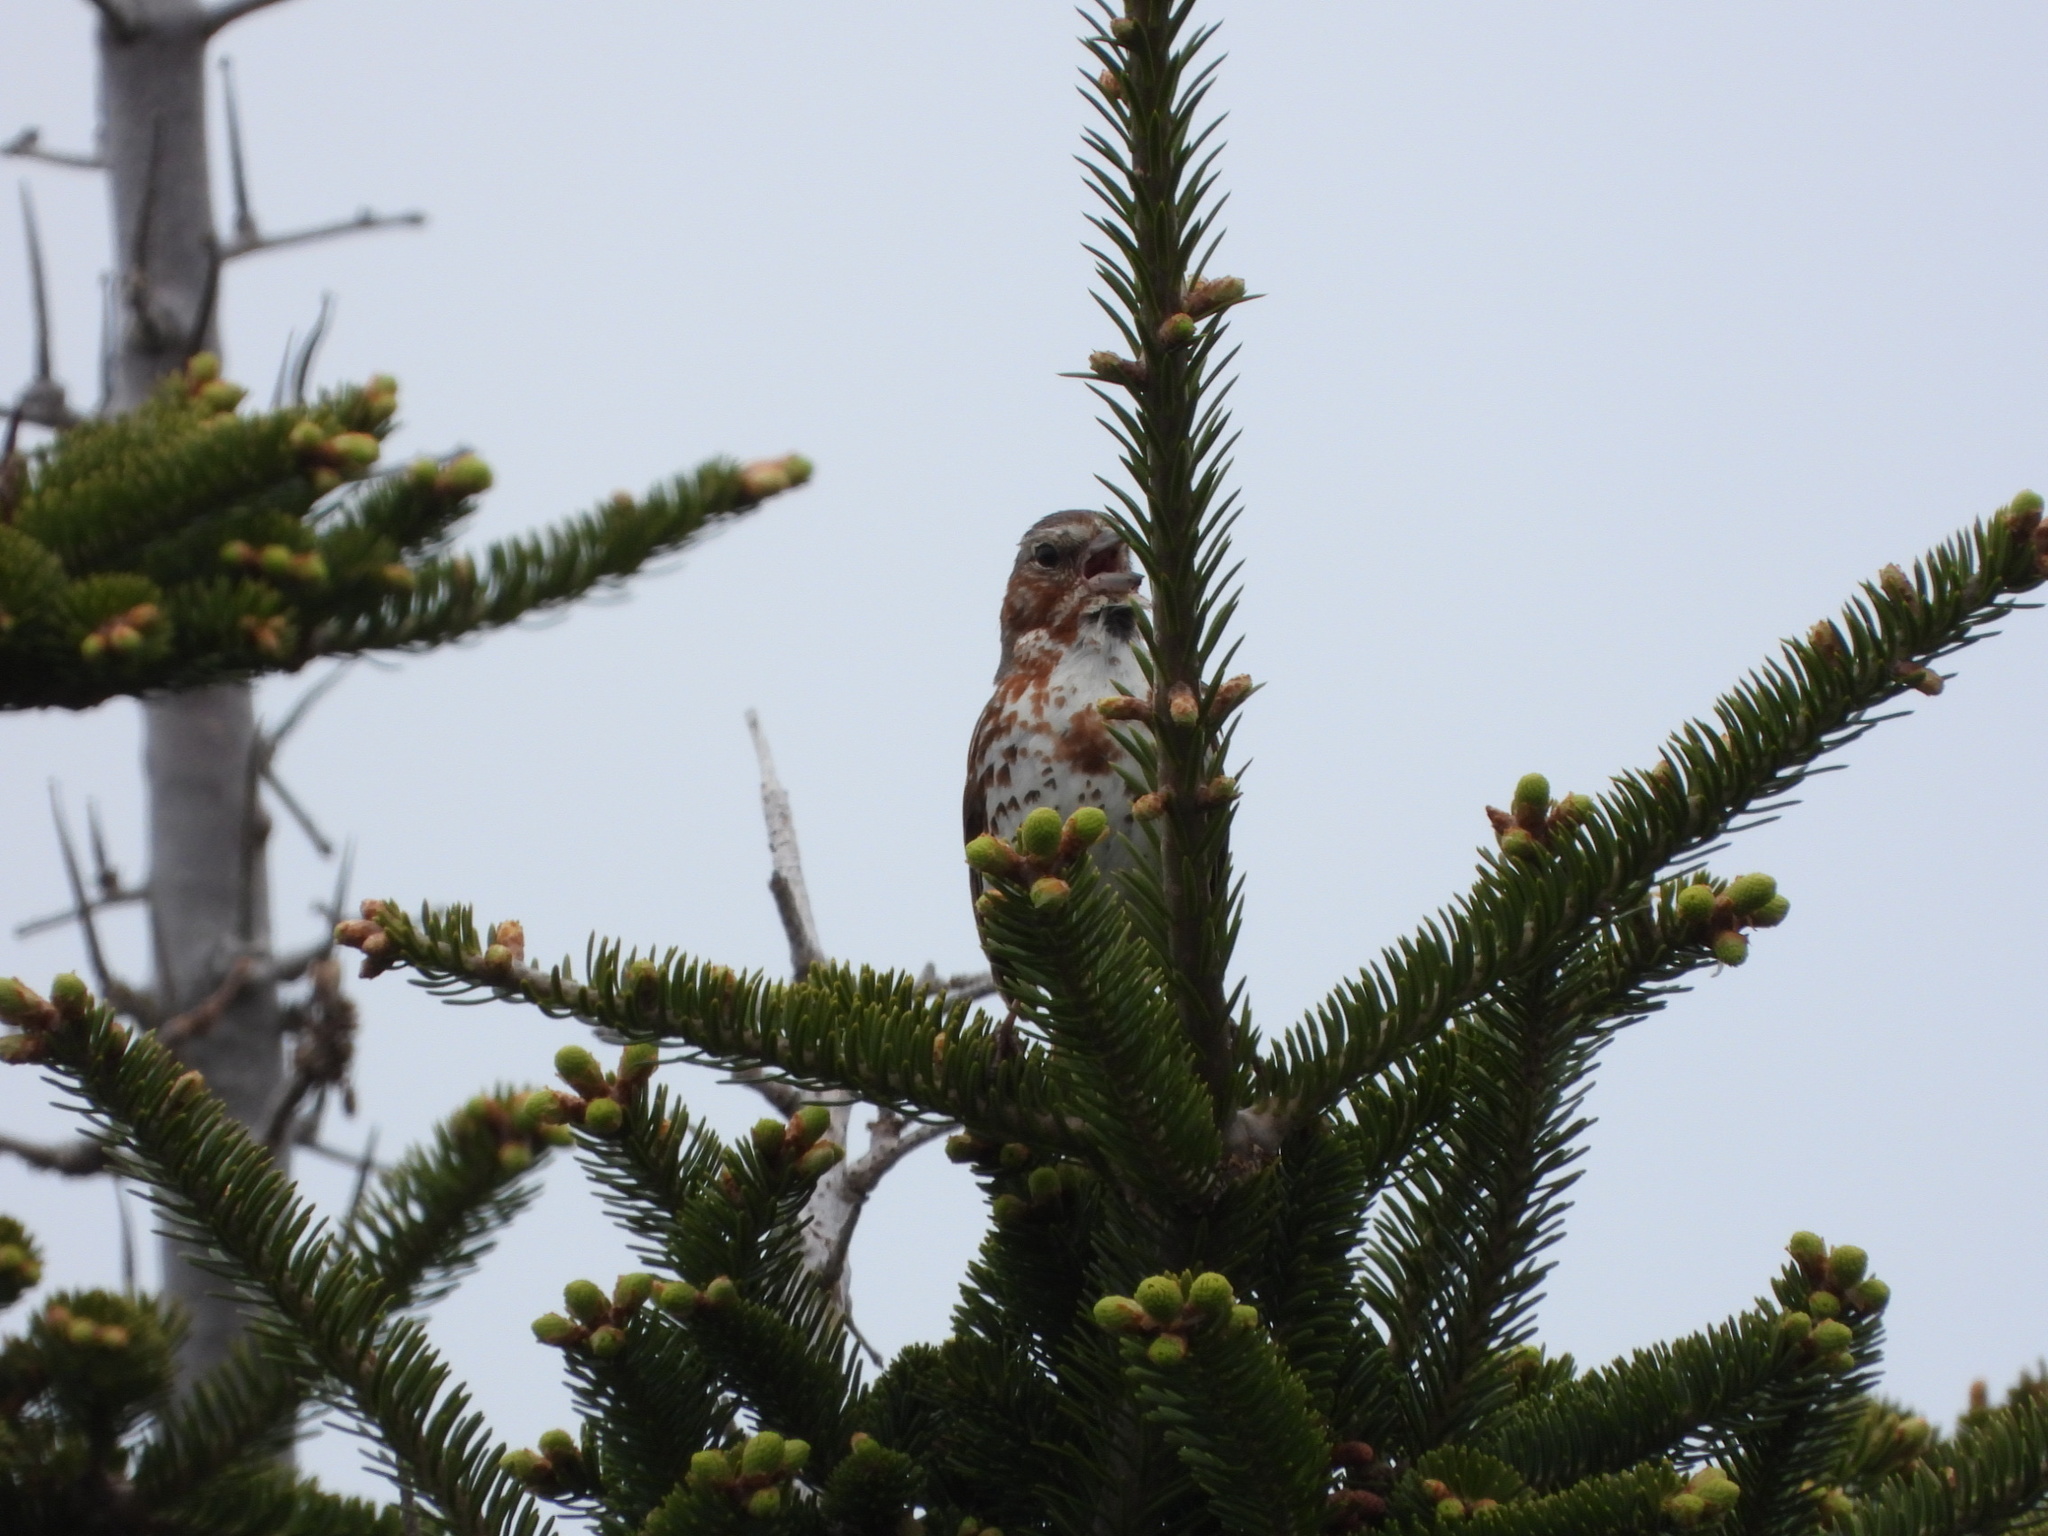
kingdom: Animalia
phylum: Chordata
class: Aves
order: Passeriformes
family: Passerellidae
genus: Passerella
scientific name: Passerella iliaca
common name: Fox sparrow
